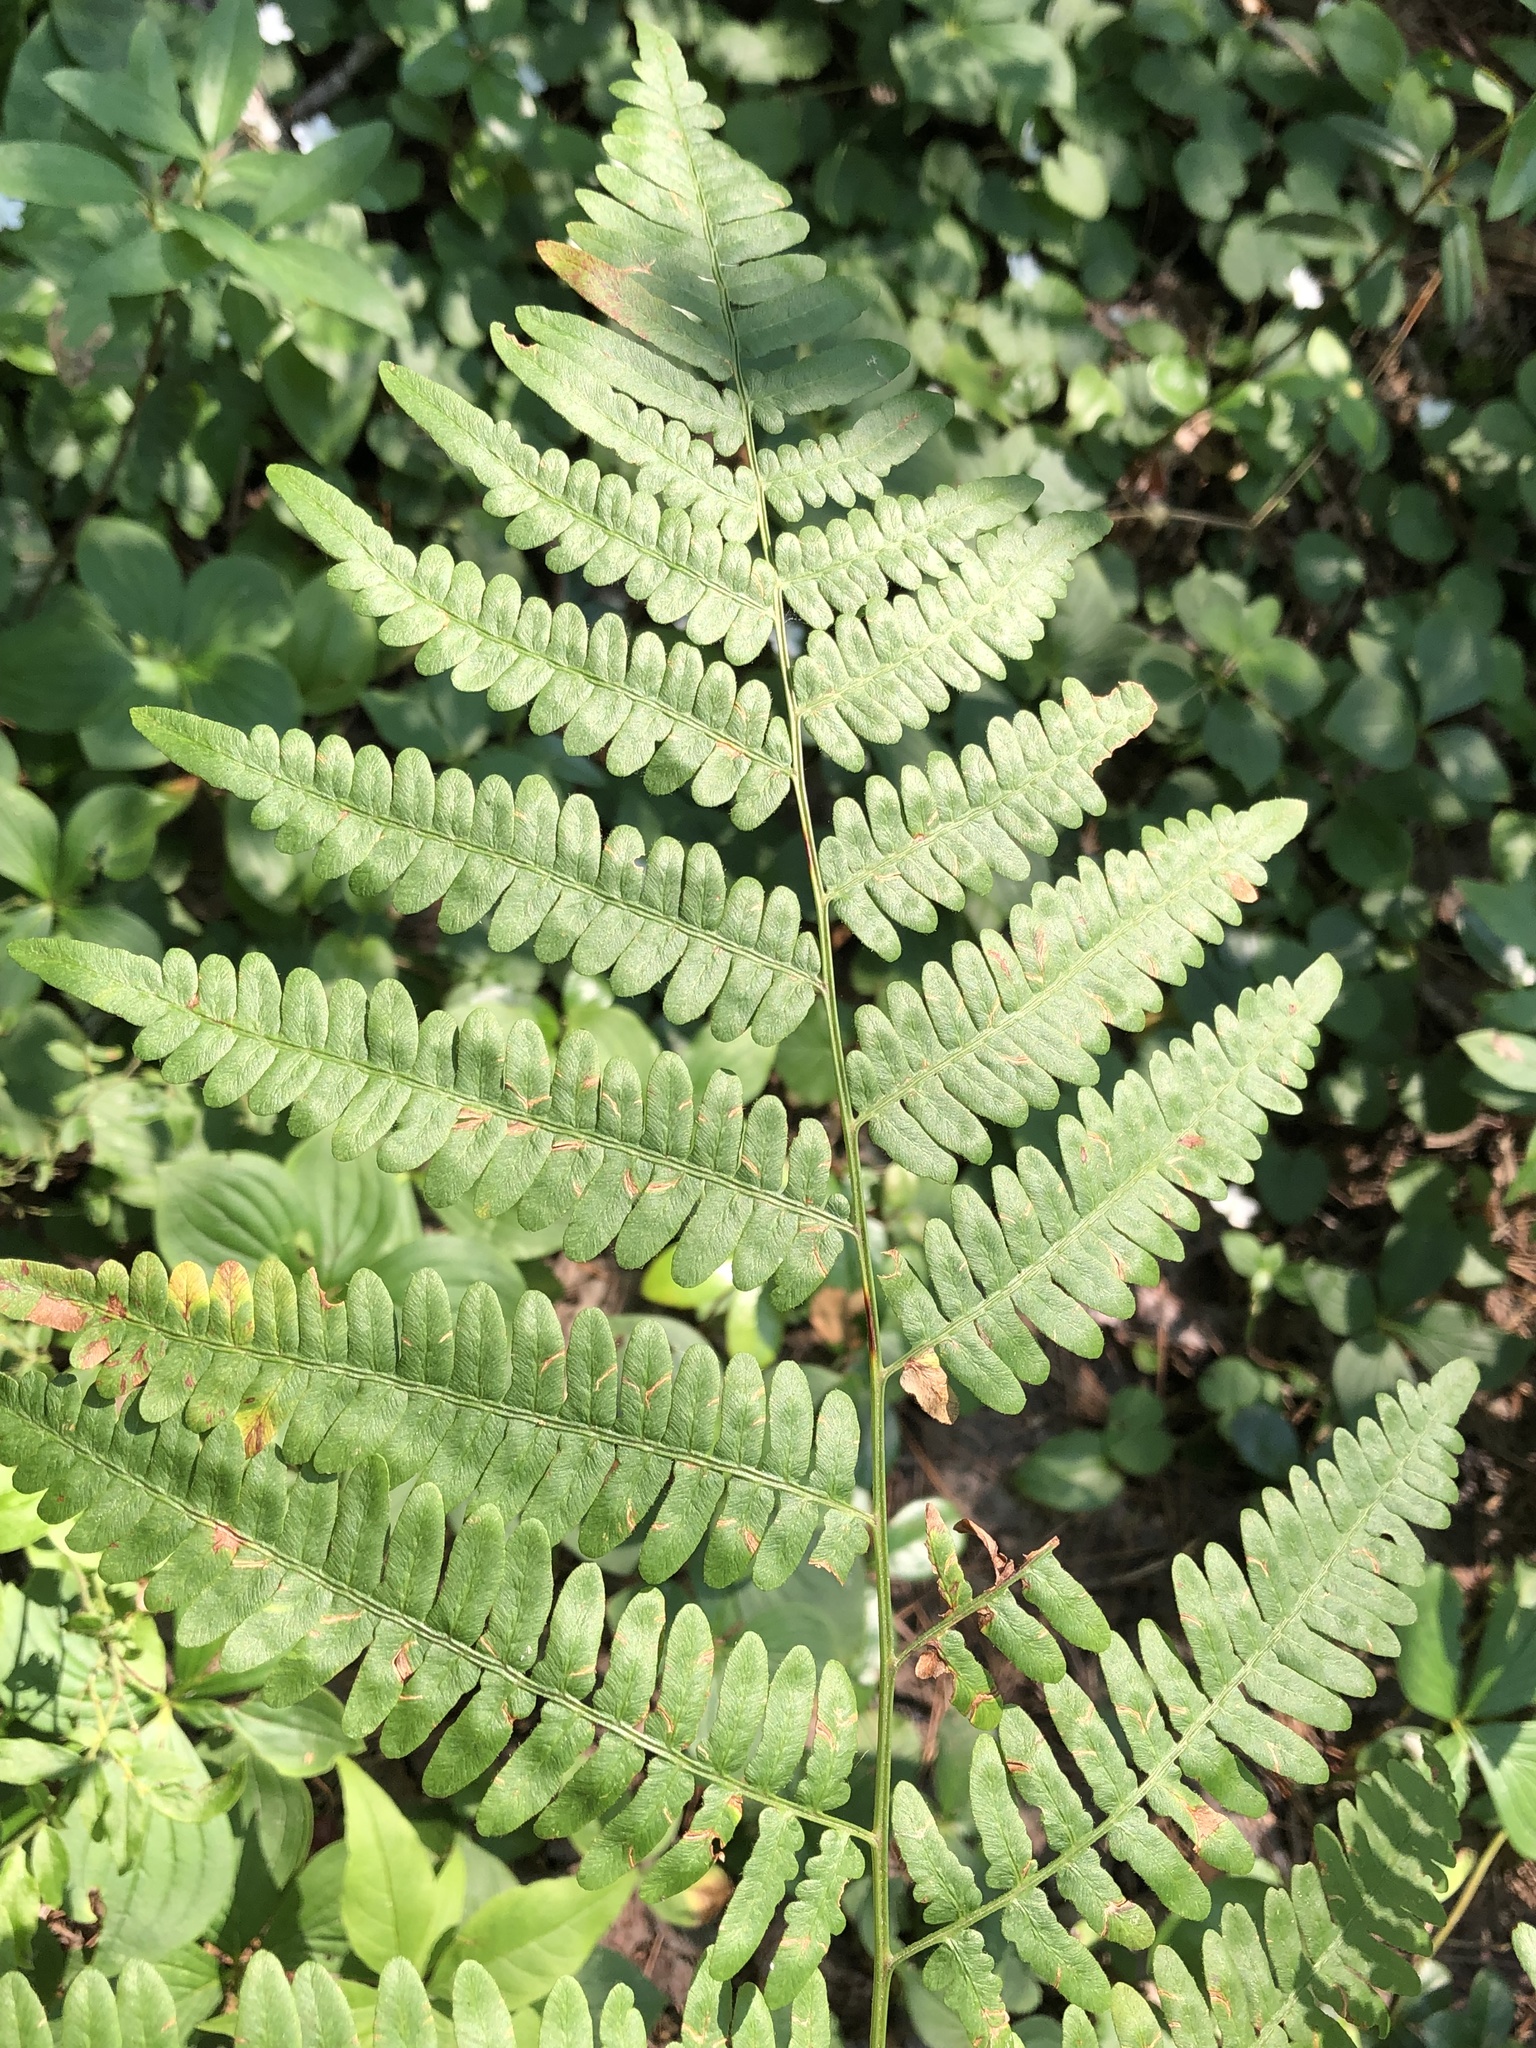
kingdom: Plantae
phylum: Tracheophyta
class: Polypodiopsida
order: Polypodiales
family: Dennstaedtiaceae
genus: Pteridium
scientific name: Pteridium aquilinum
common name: Bracken
